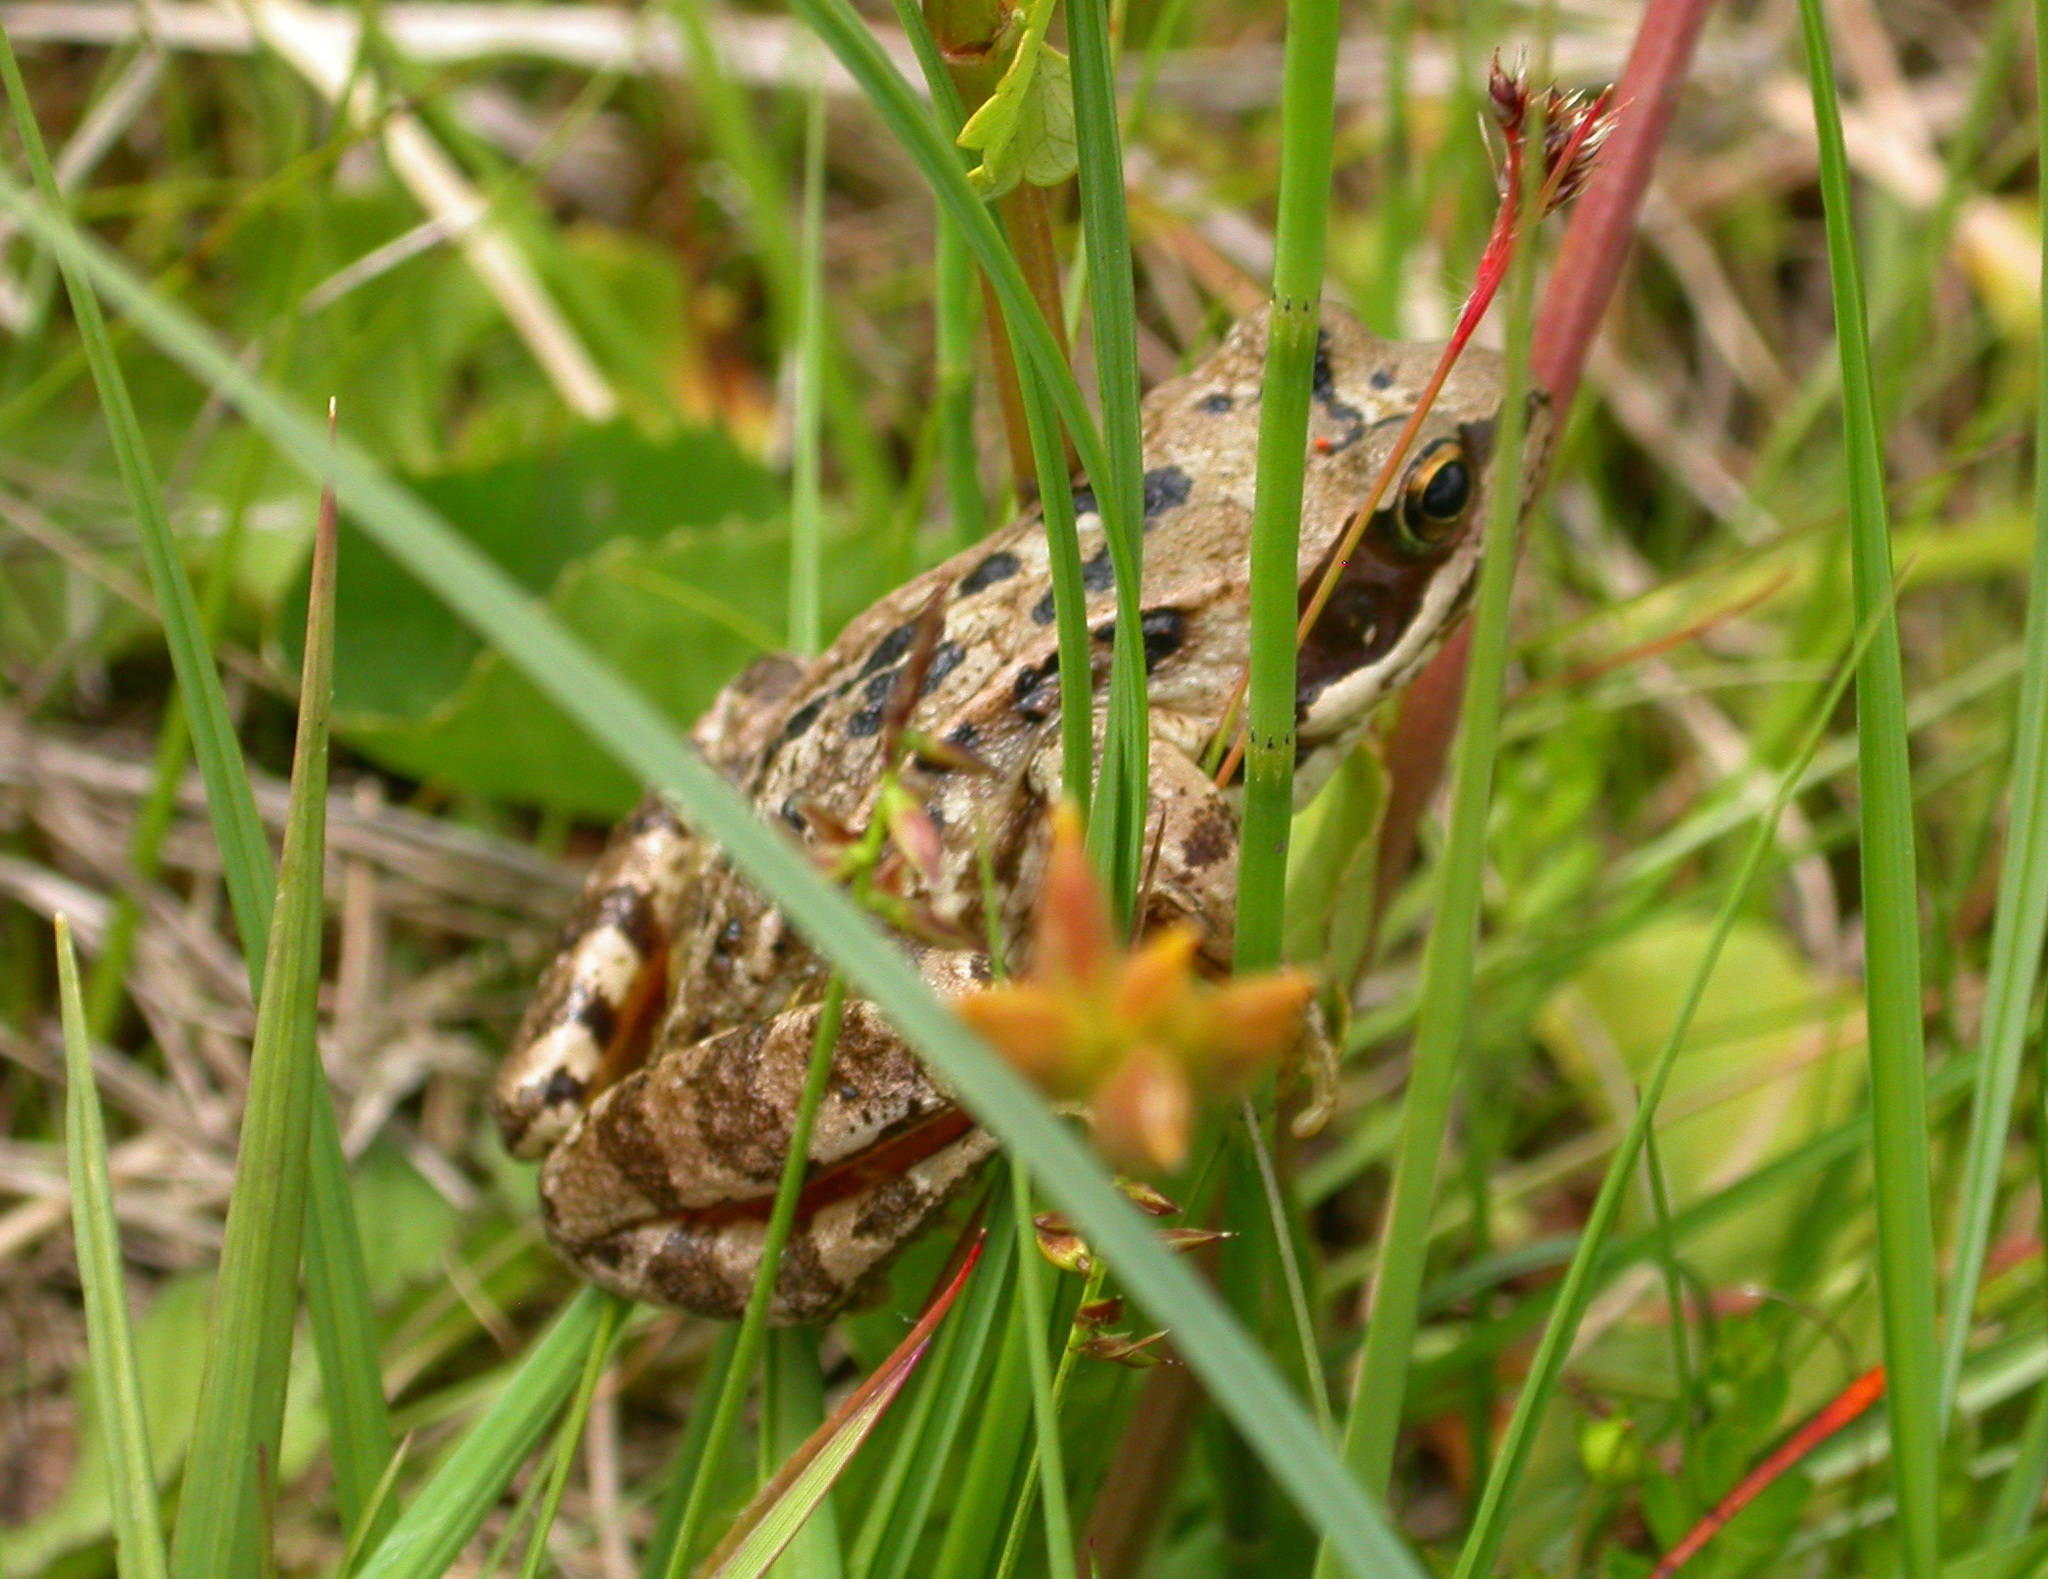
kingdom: Animalia
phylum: Chordata
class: Amphibia
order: Anura
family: Ranidae
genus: Rana
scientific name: Rana temporaria
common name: Common frog
